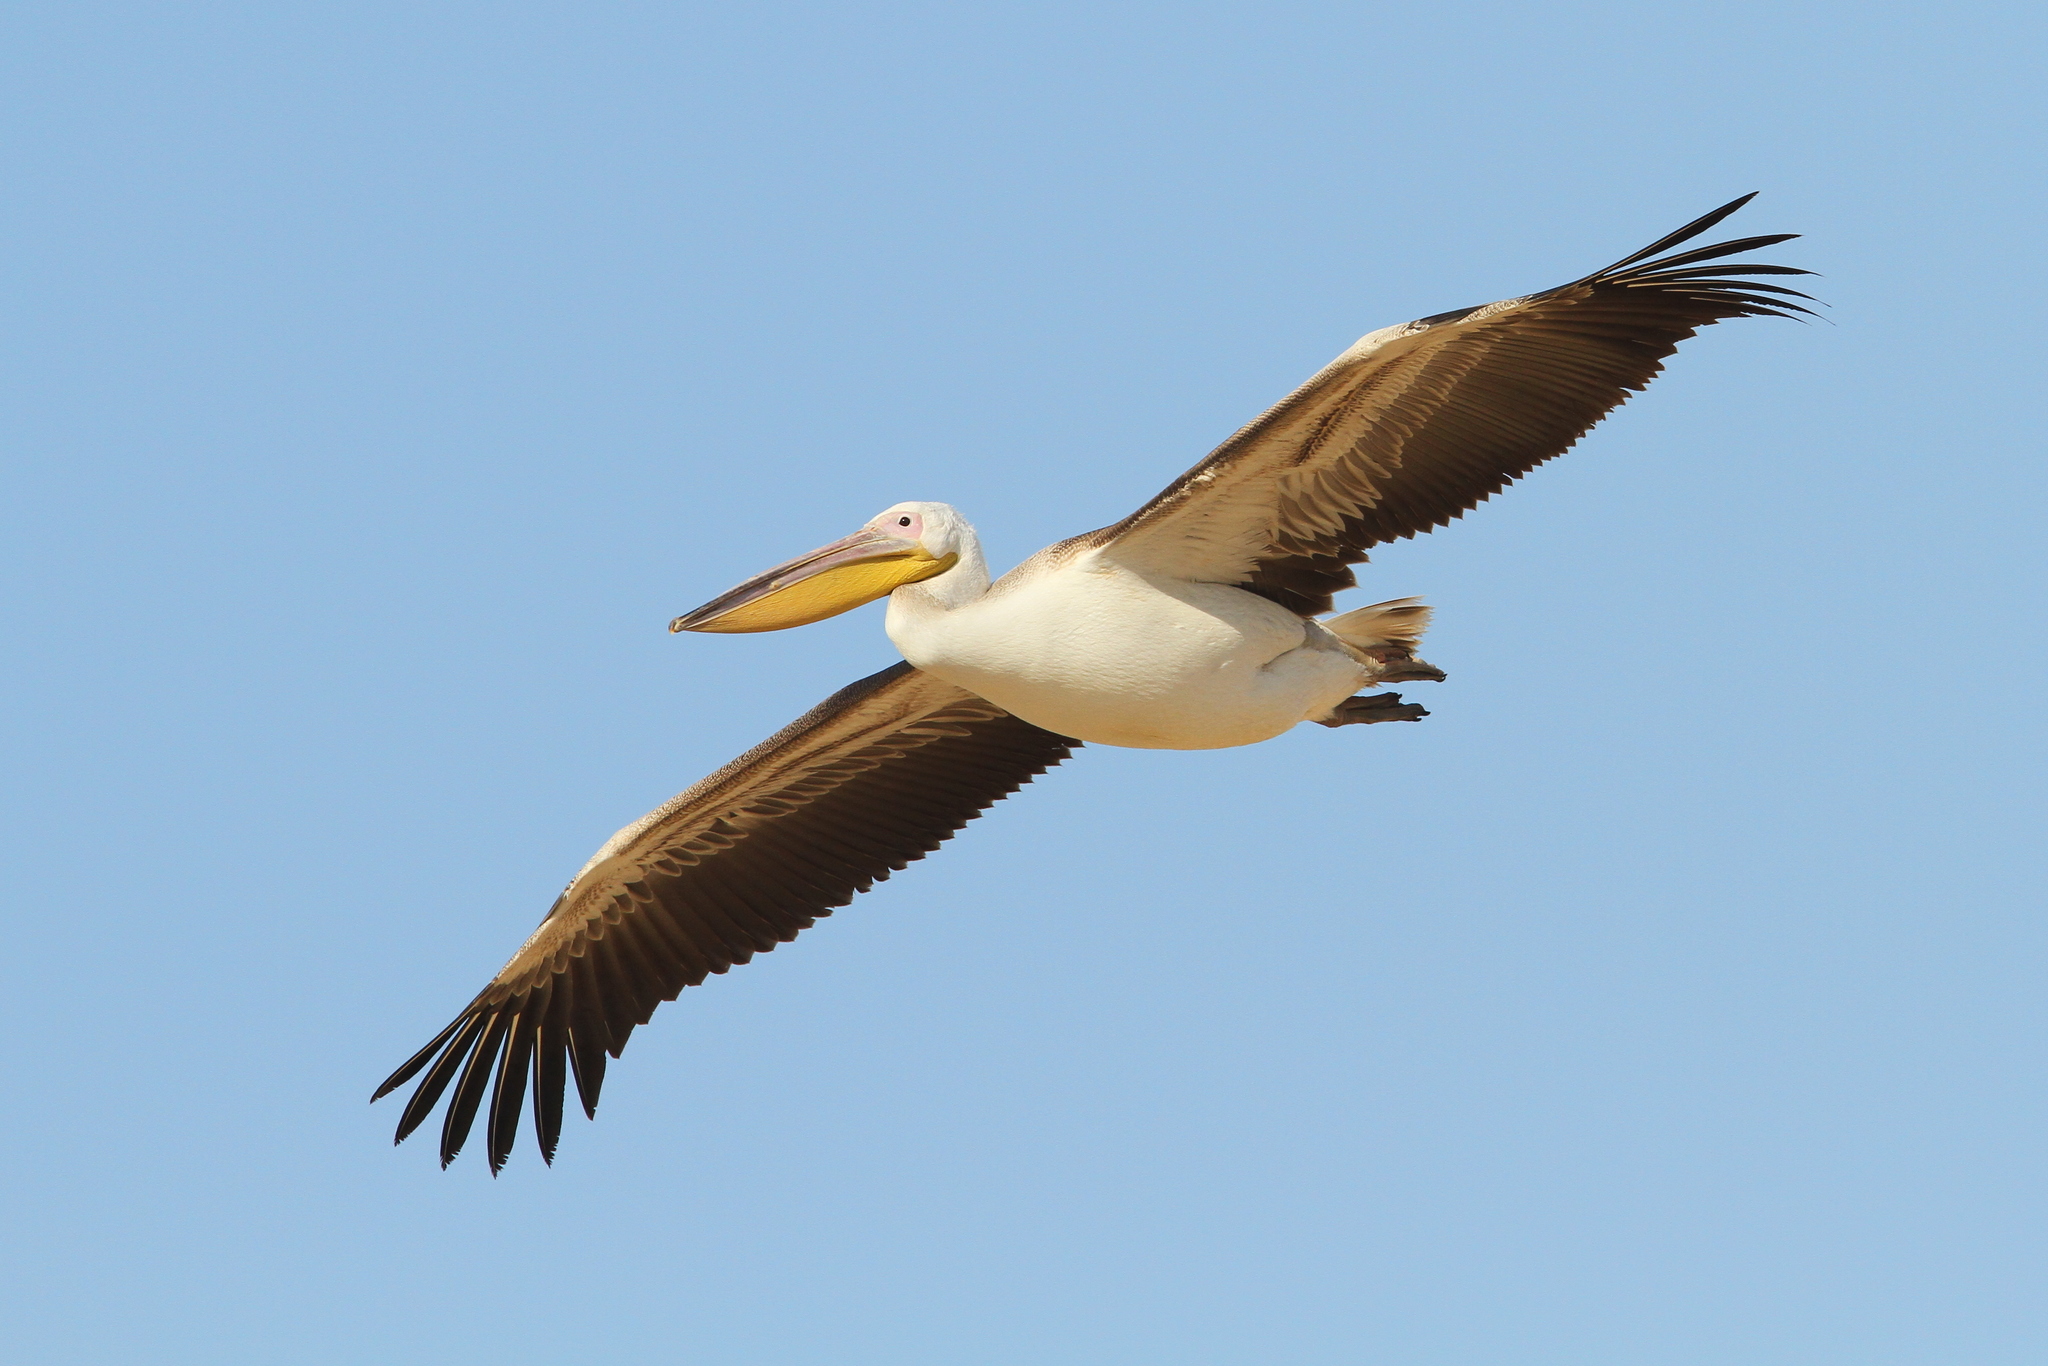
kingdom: Animalia
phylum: Chordata
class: Aves
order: Pelecaniformes
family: Pelecanidae
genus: Pelecanus
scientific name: Pelecanus onocrotalus
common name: Great white pelican
